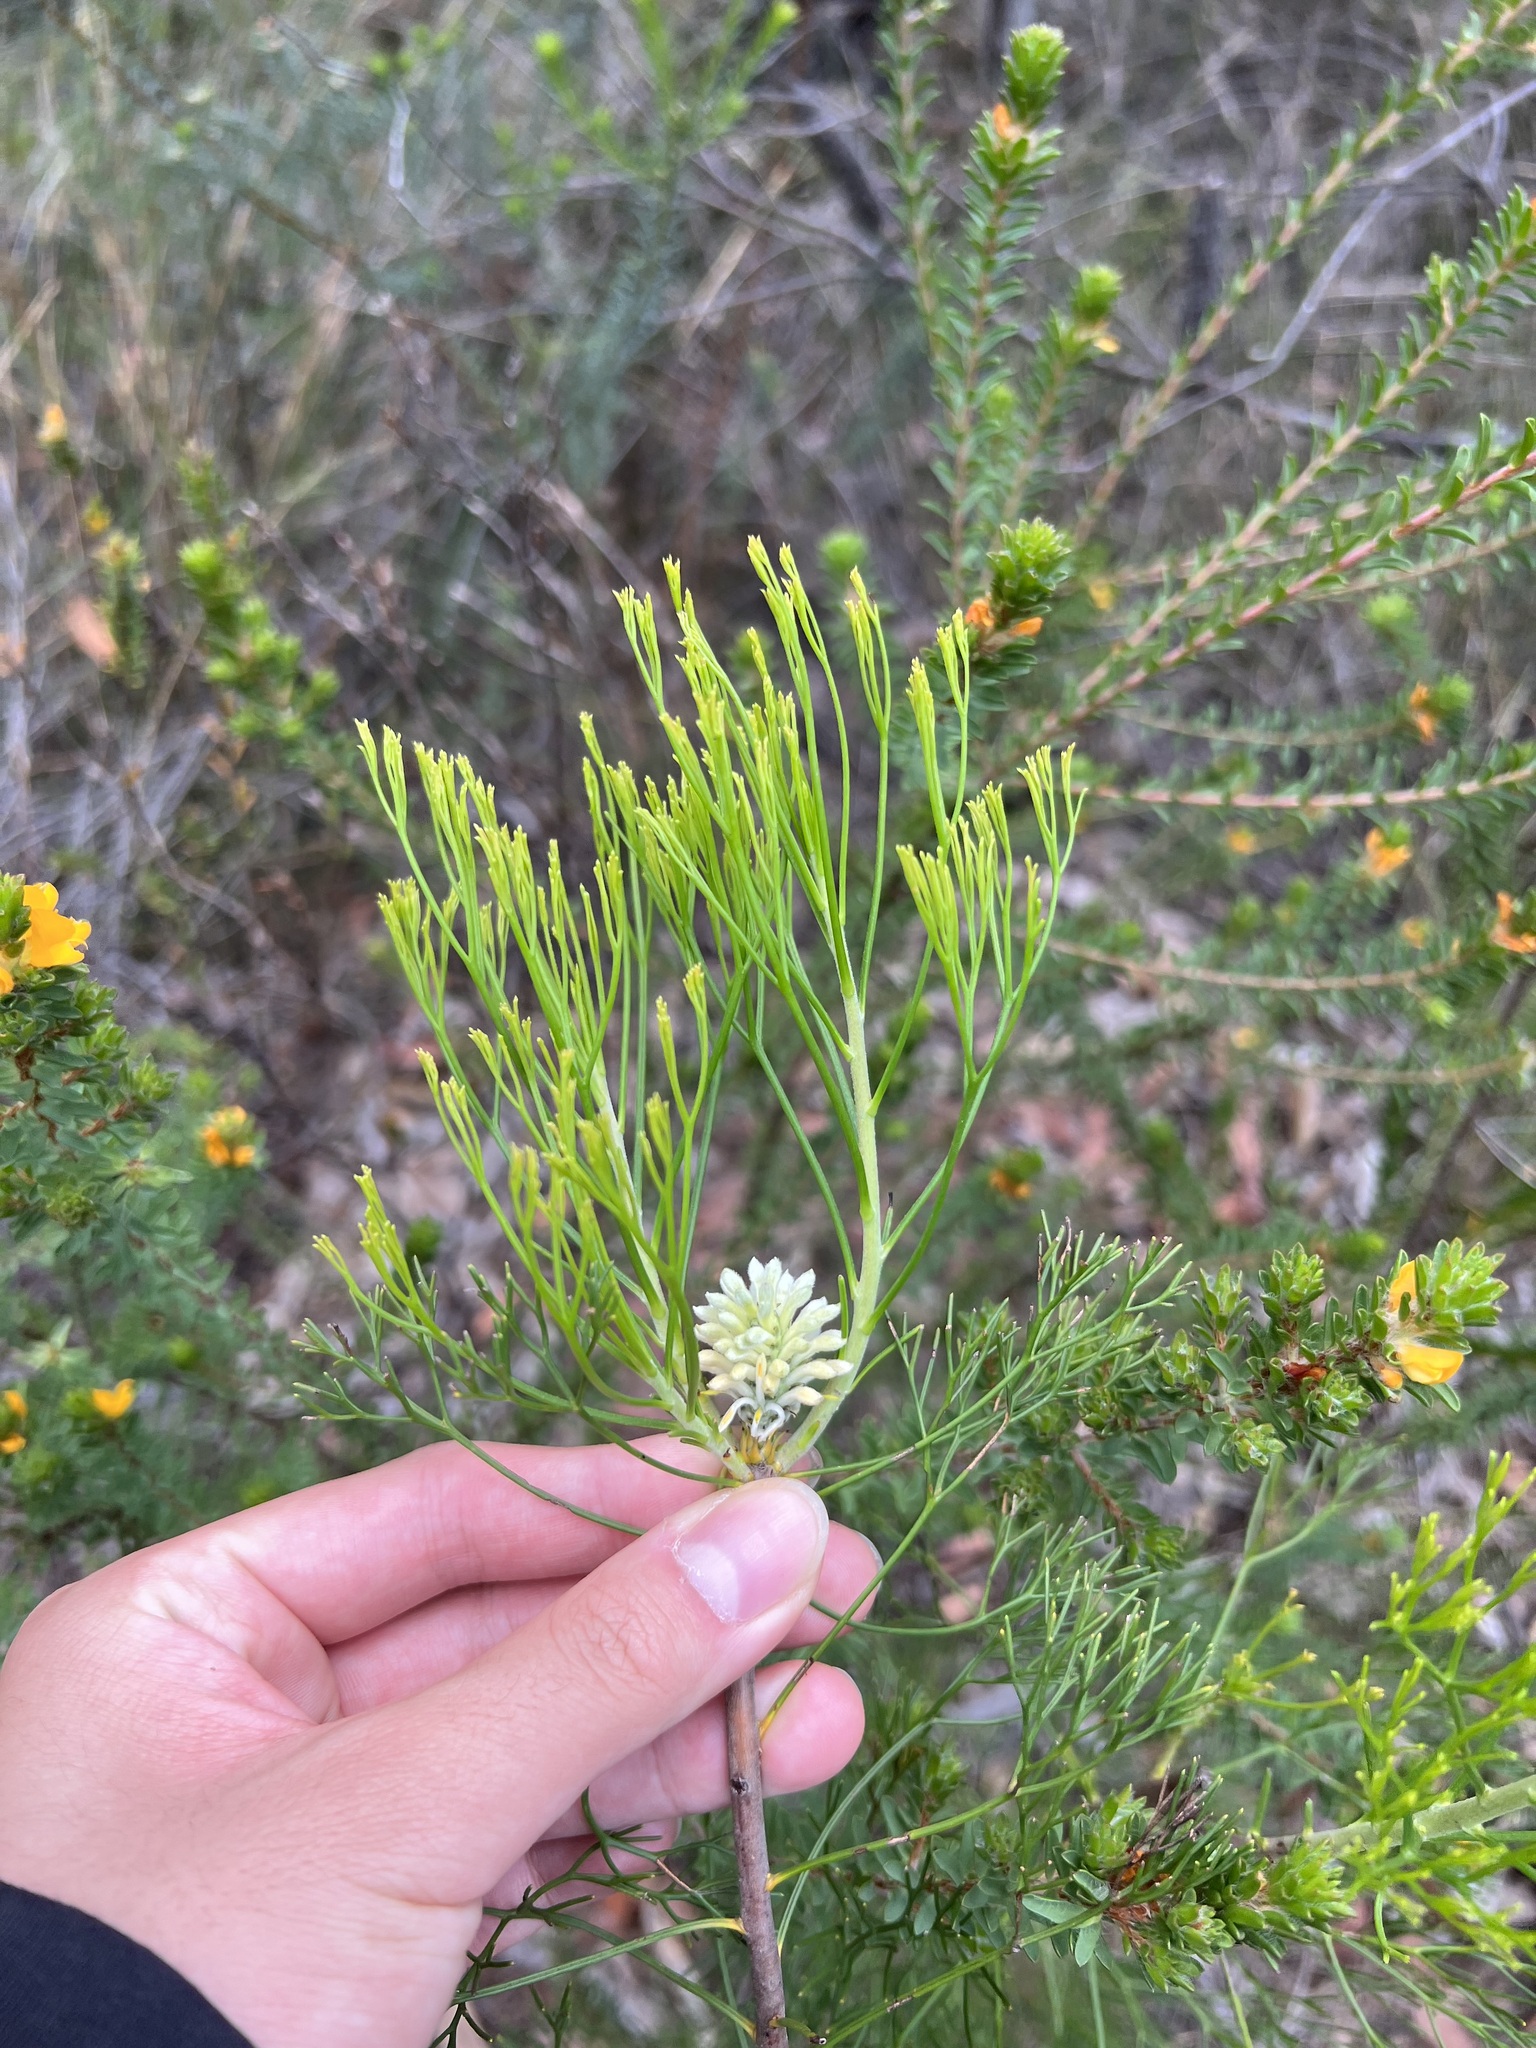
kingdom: Plantae
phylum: Tracheophyta
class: Magnoliopsida
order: Proteales
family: Proteaceae
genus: Petrophile
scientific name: Petrophile pulchella
